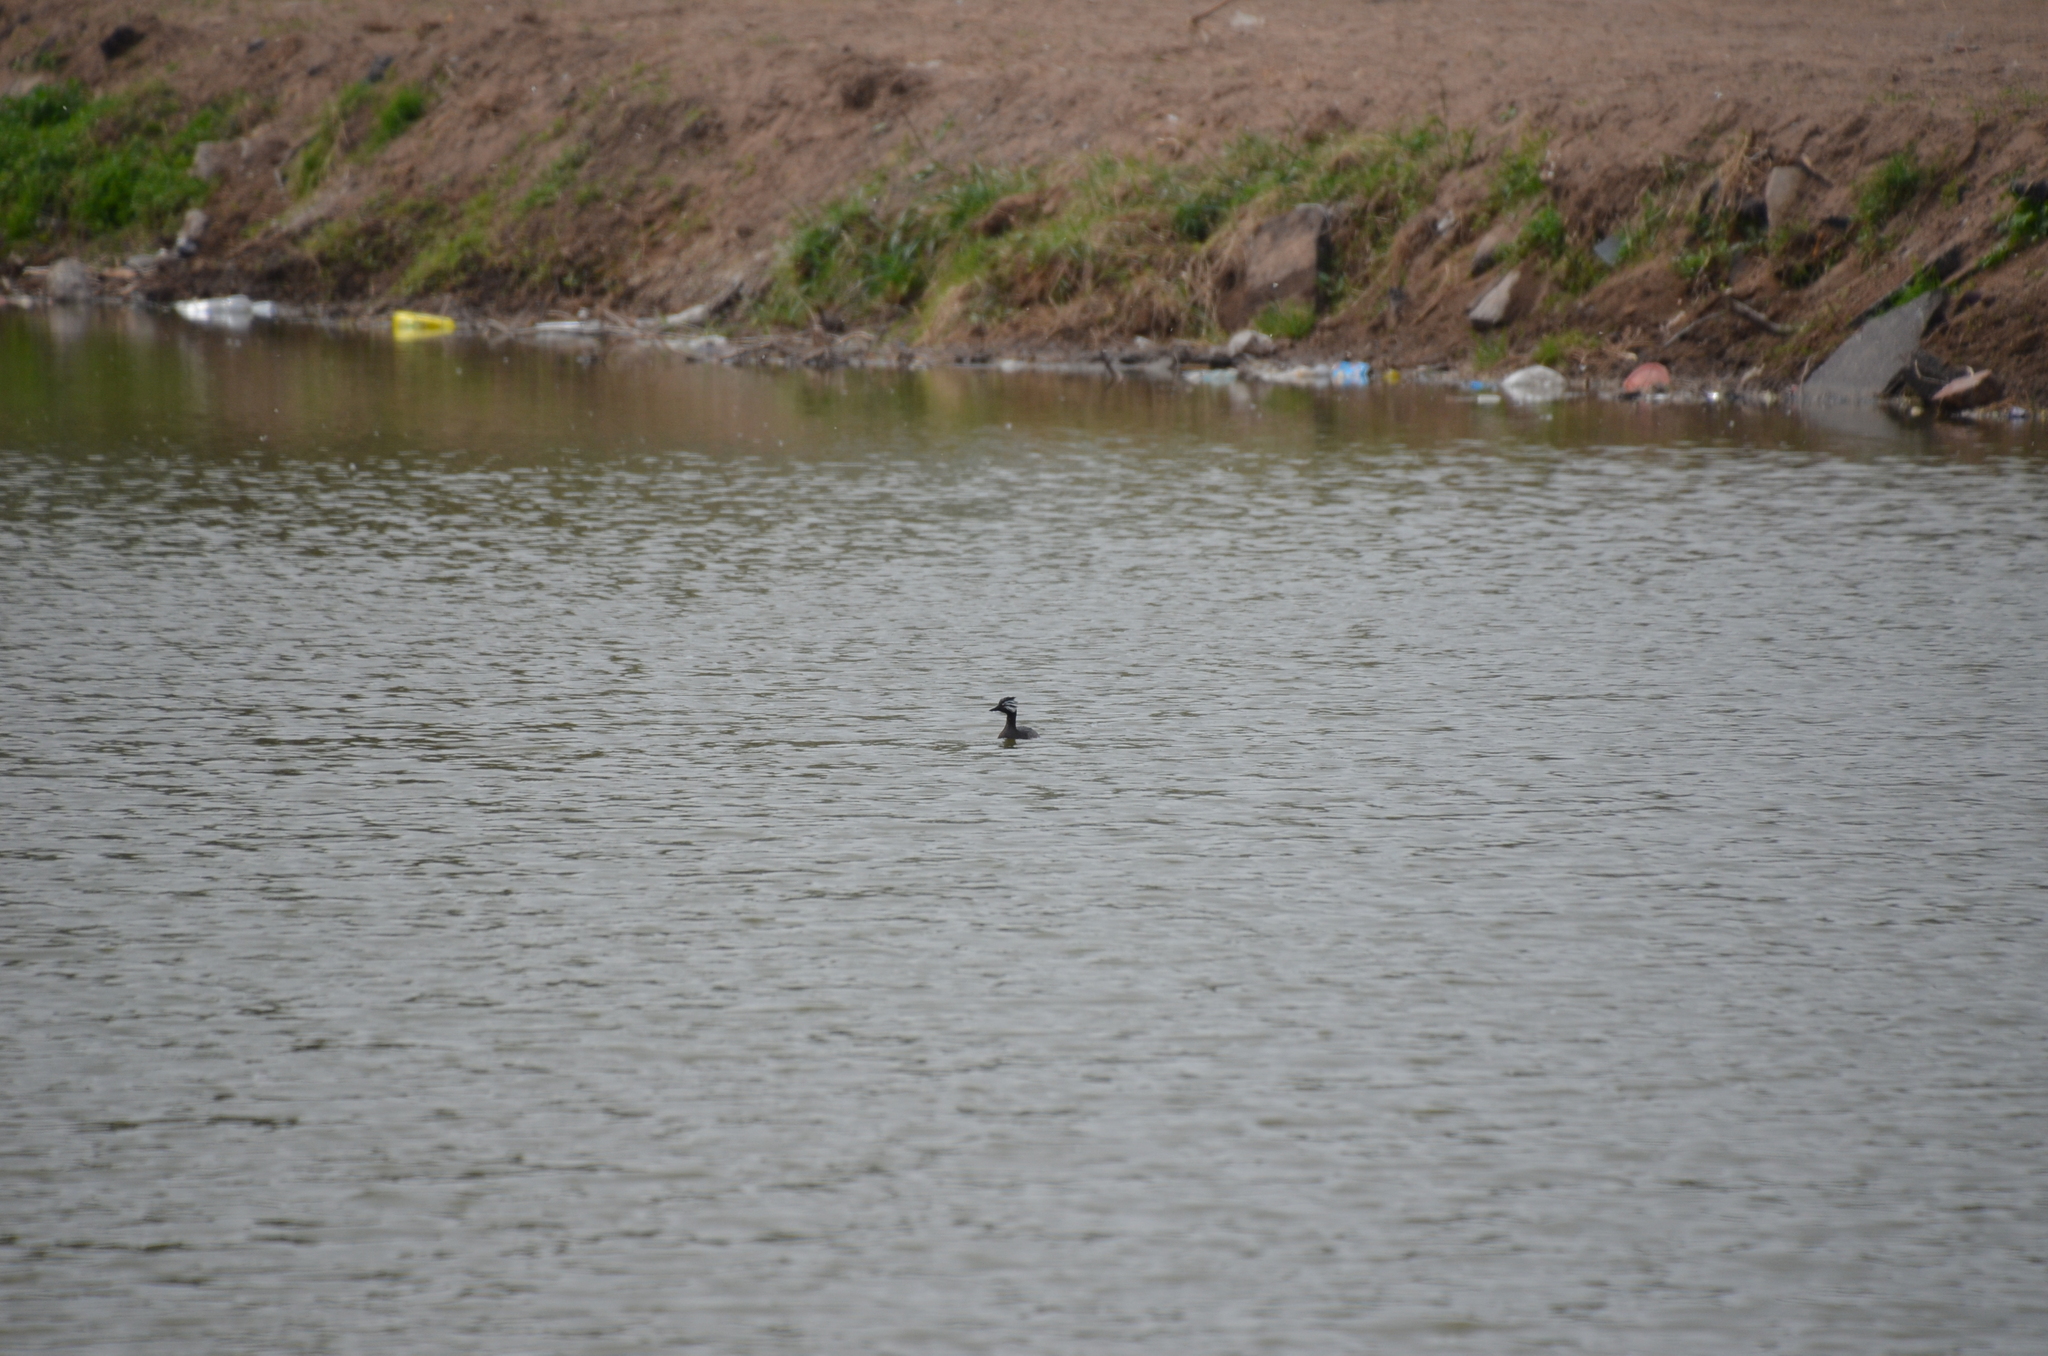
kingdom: Animalia
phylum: Chordata
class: Aves
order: Podicipediformes
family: Podicipedidae
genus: Rollandia
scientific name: Rollandia rolland
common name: White-tufted grebe
